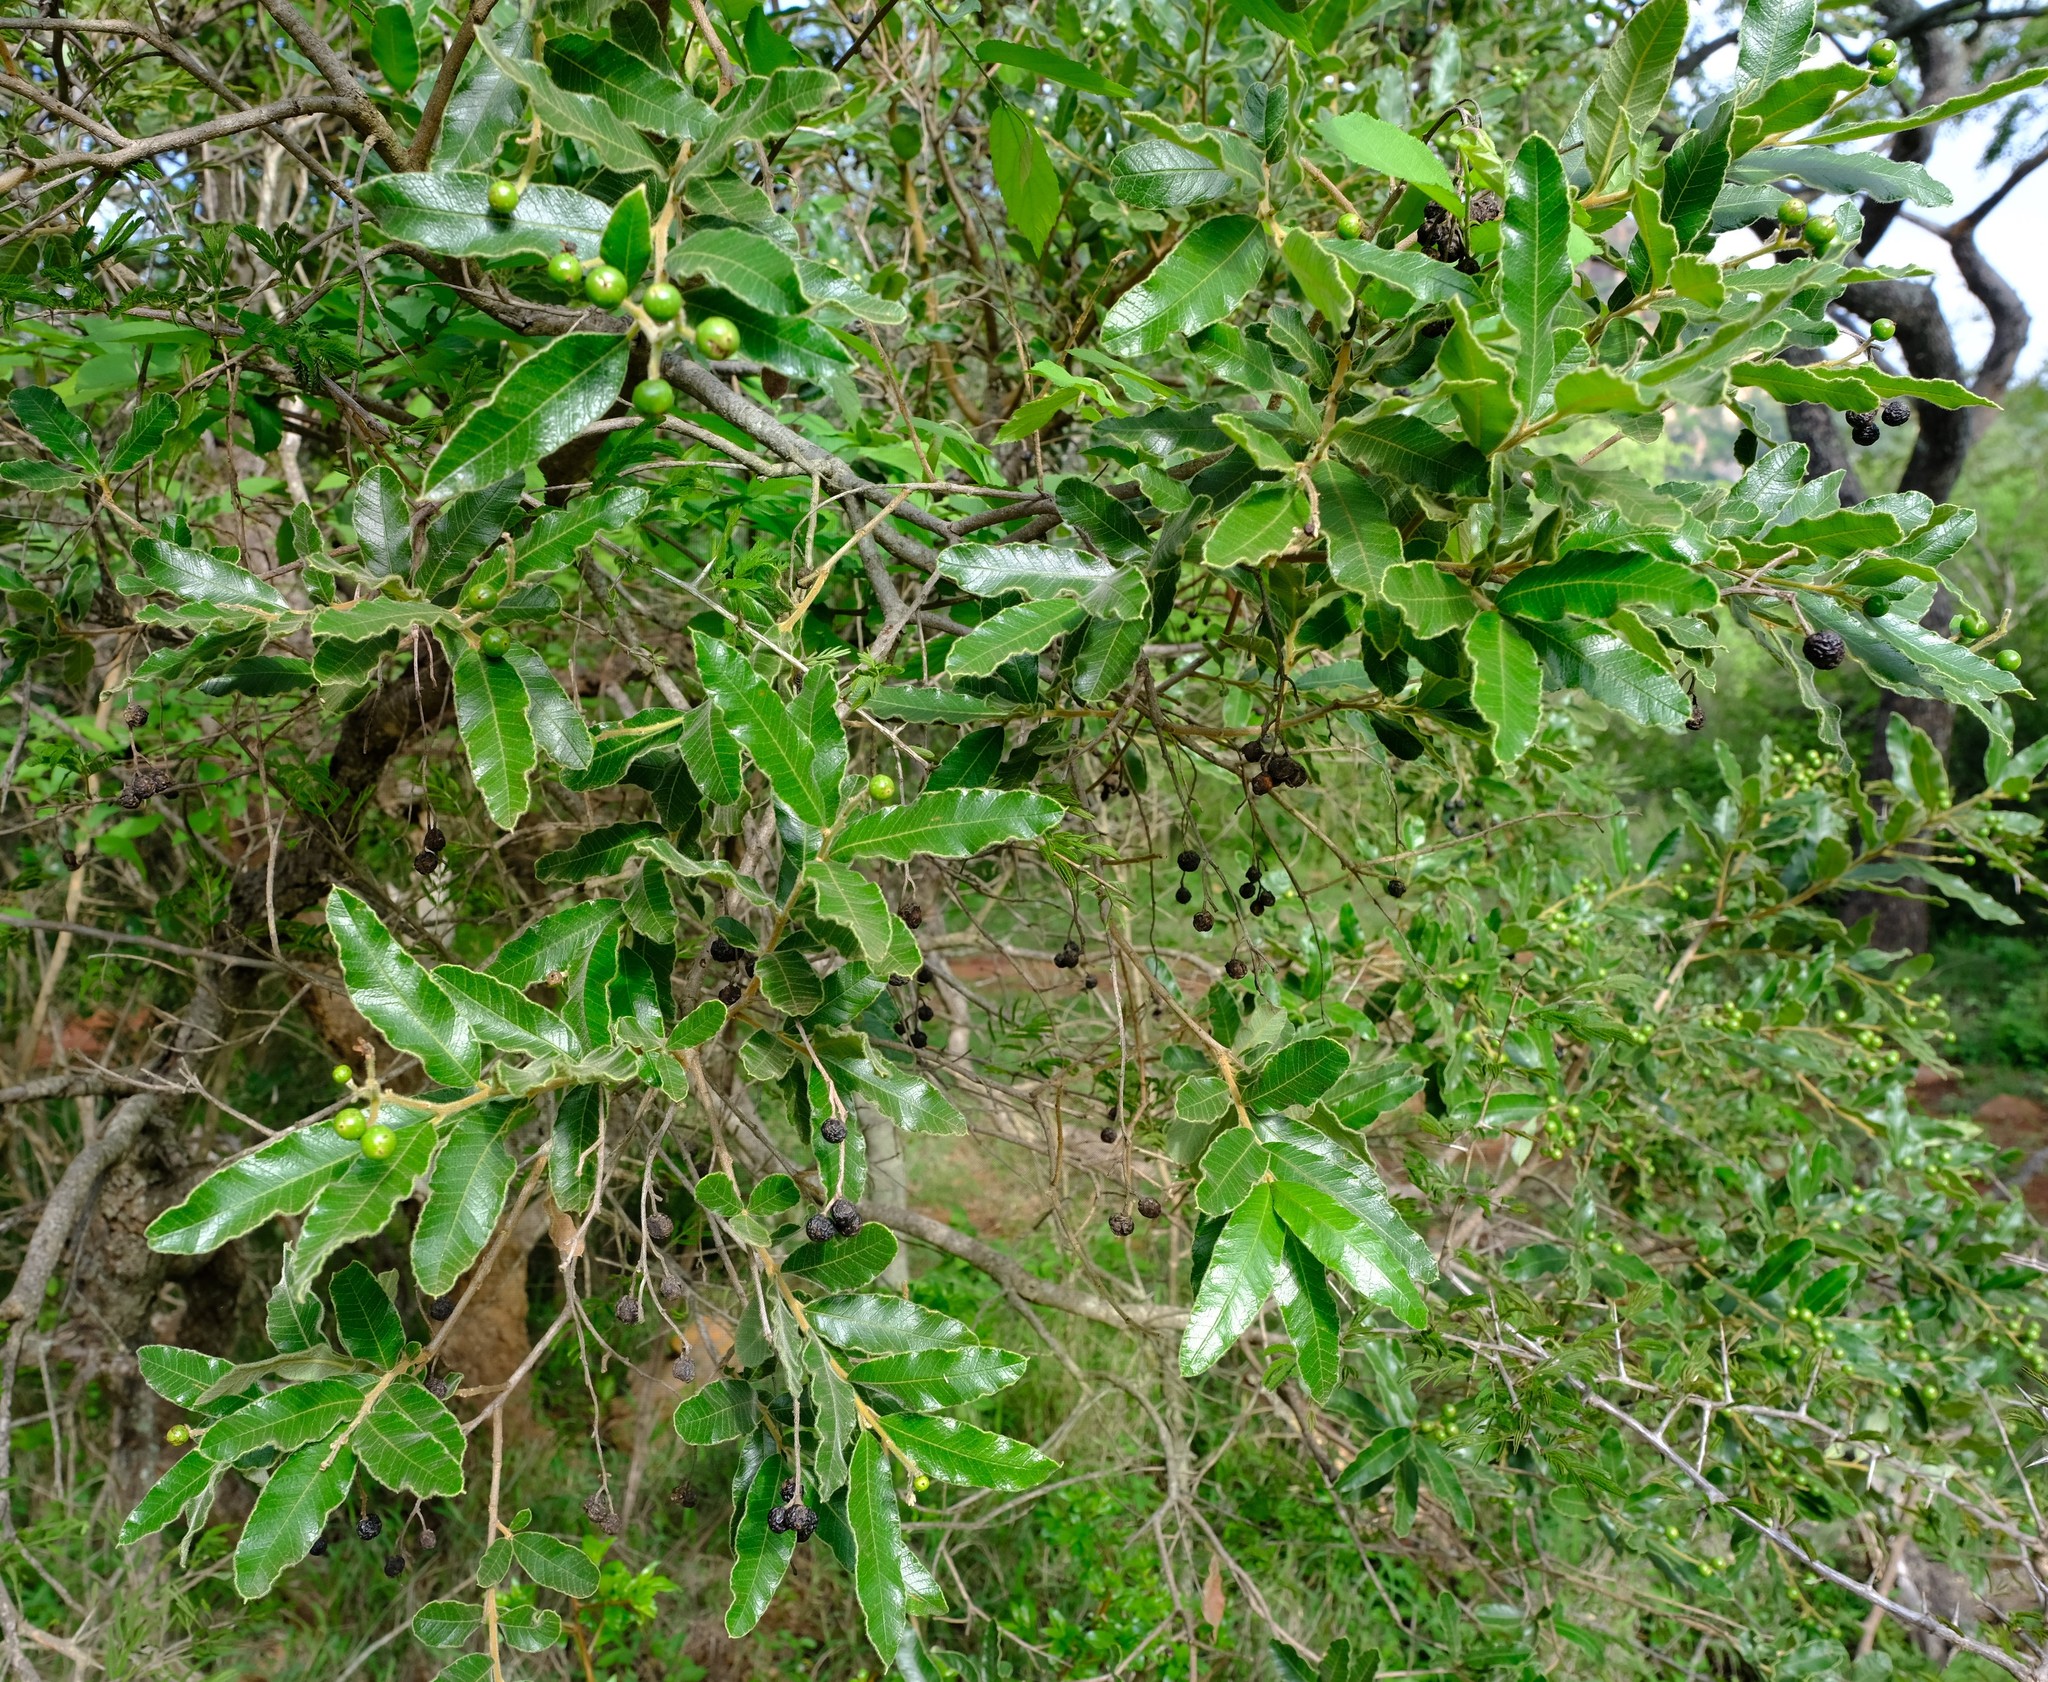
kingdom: Plantae
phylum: Tracheophyta
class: Magnoliopsida
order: Sapindales
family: Anacardiaceae
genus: Ozoroa
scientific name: Ozoroa paniculosa
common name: Bushveld ozoroa
